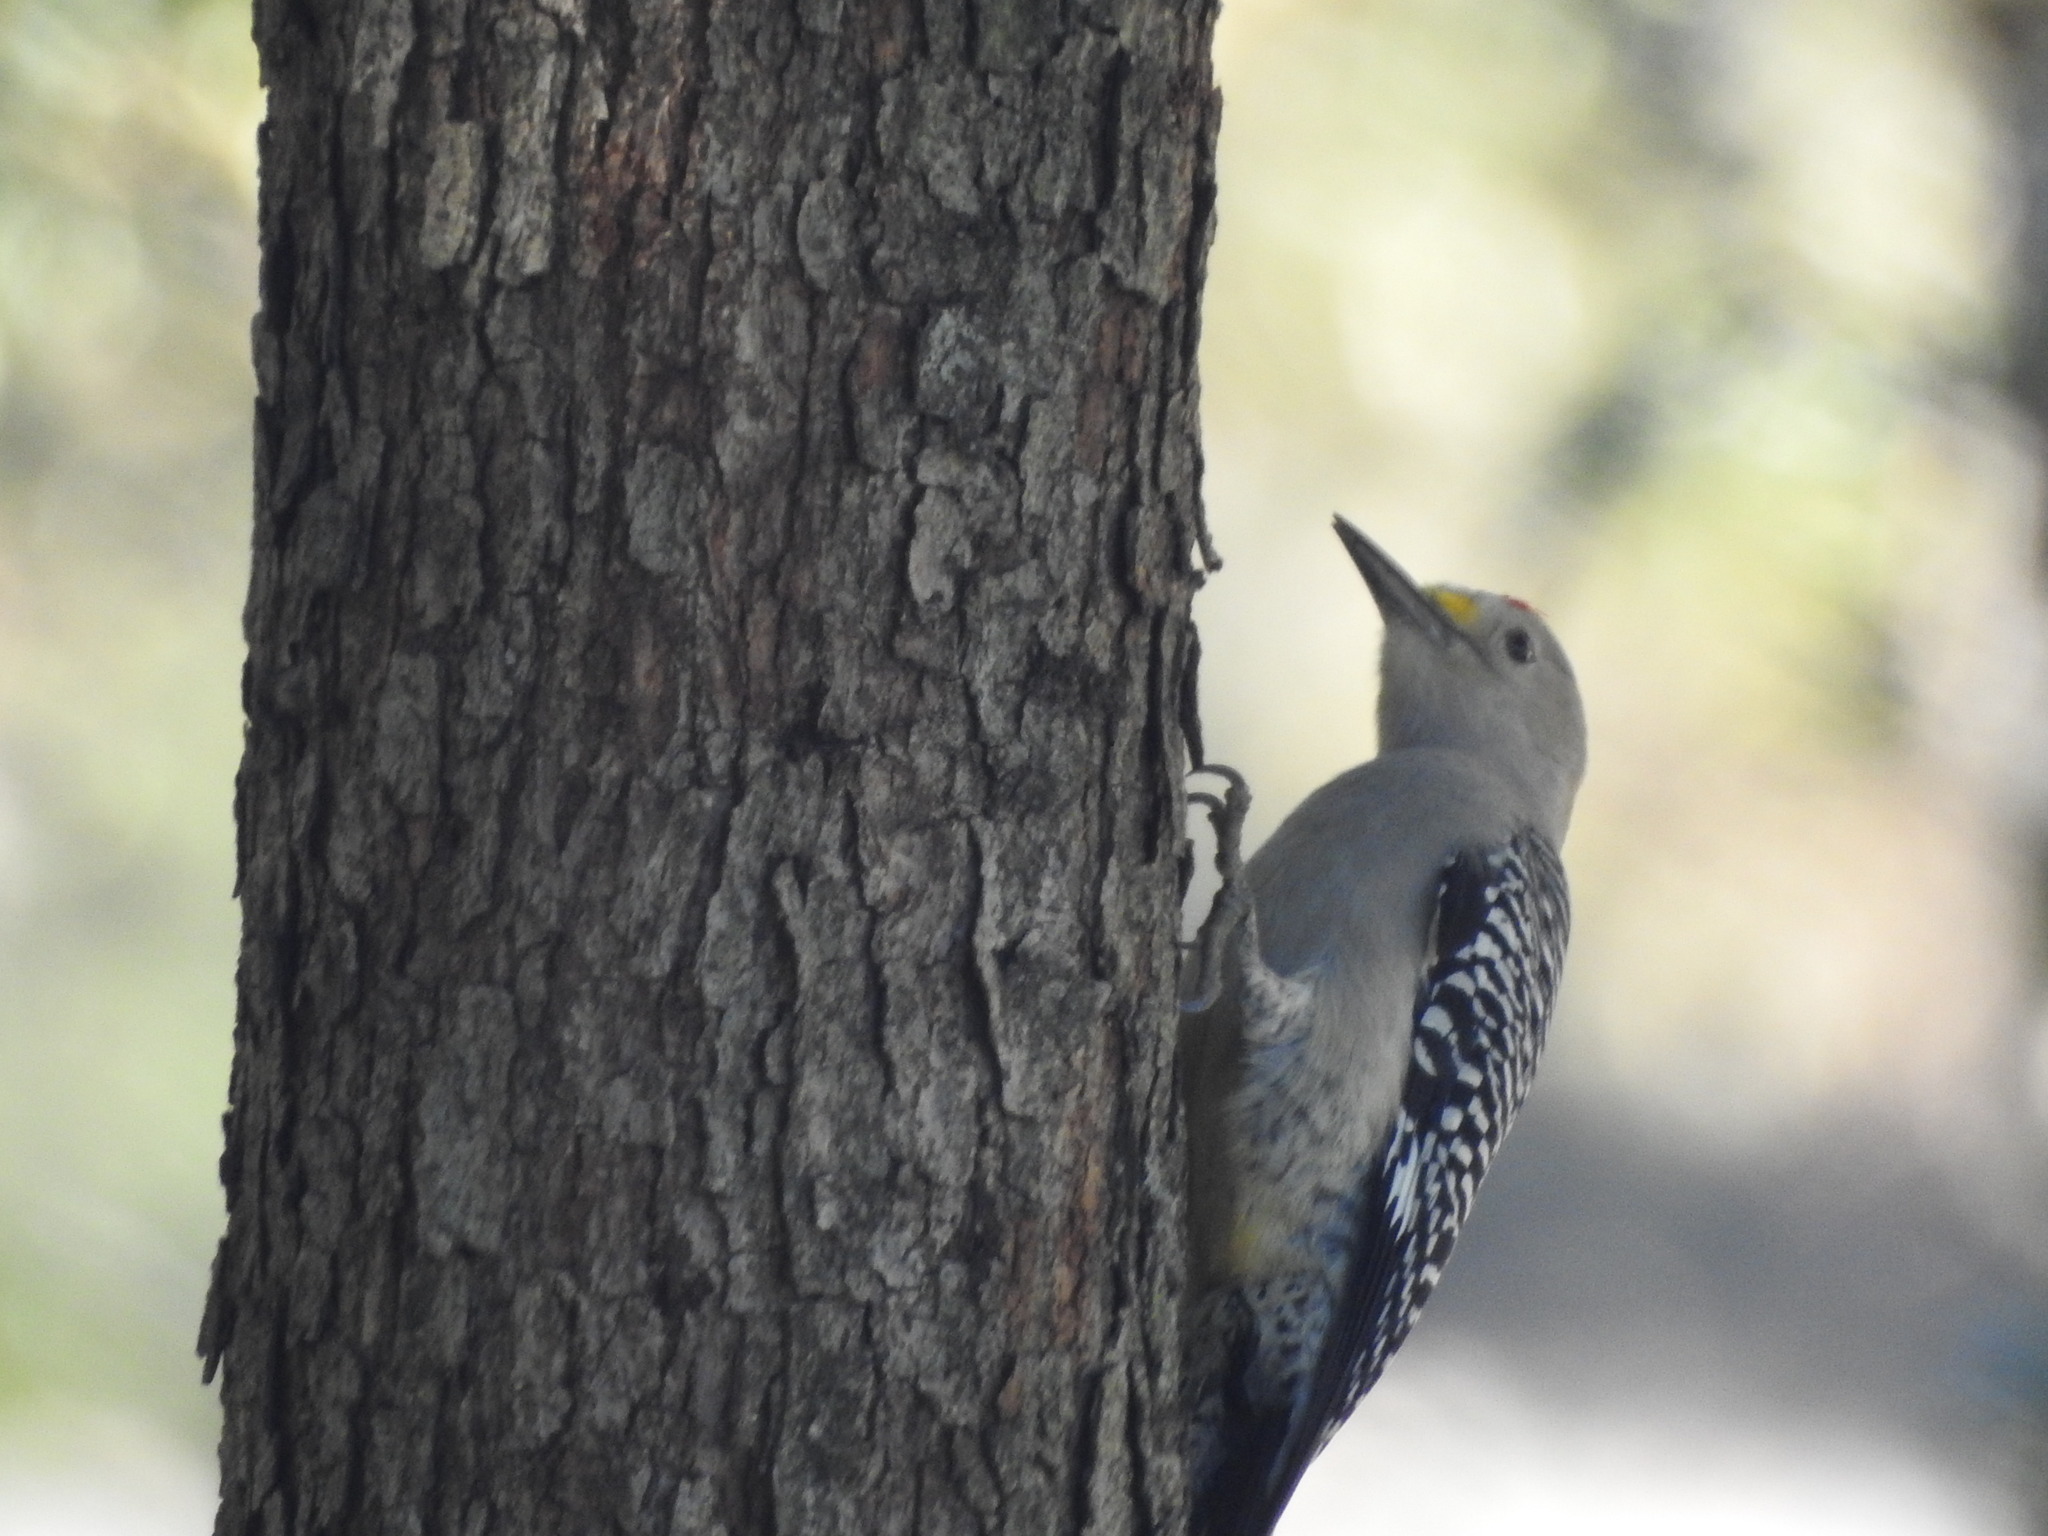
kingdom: Animalia
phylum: Chordata
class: Aves
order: Piciformes
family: Picidae
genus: Melanerpes
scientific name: Melanerpes aurifrons
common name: Golden-fronted woodpecker
